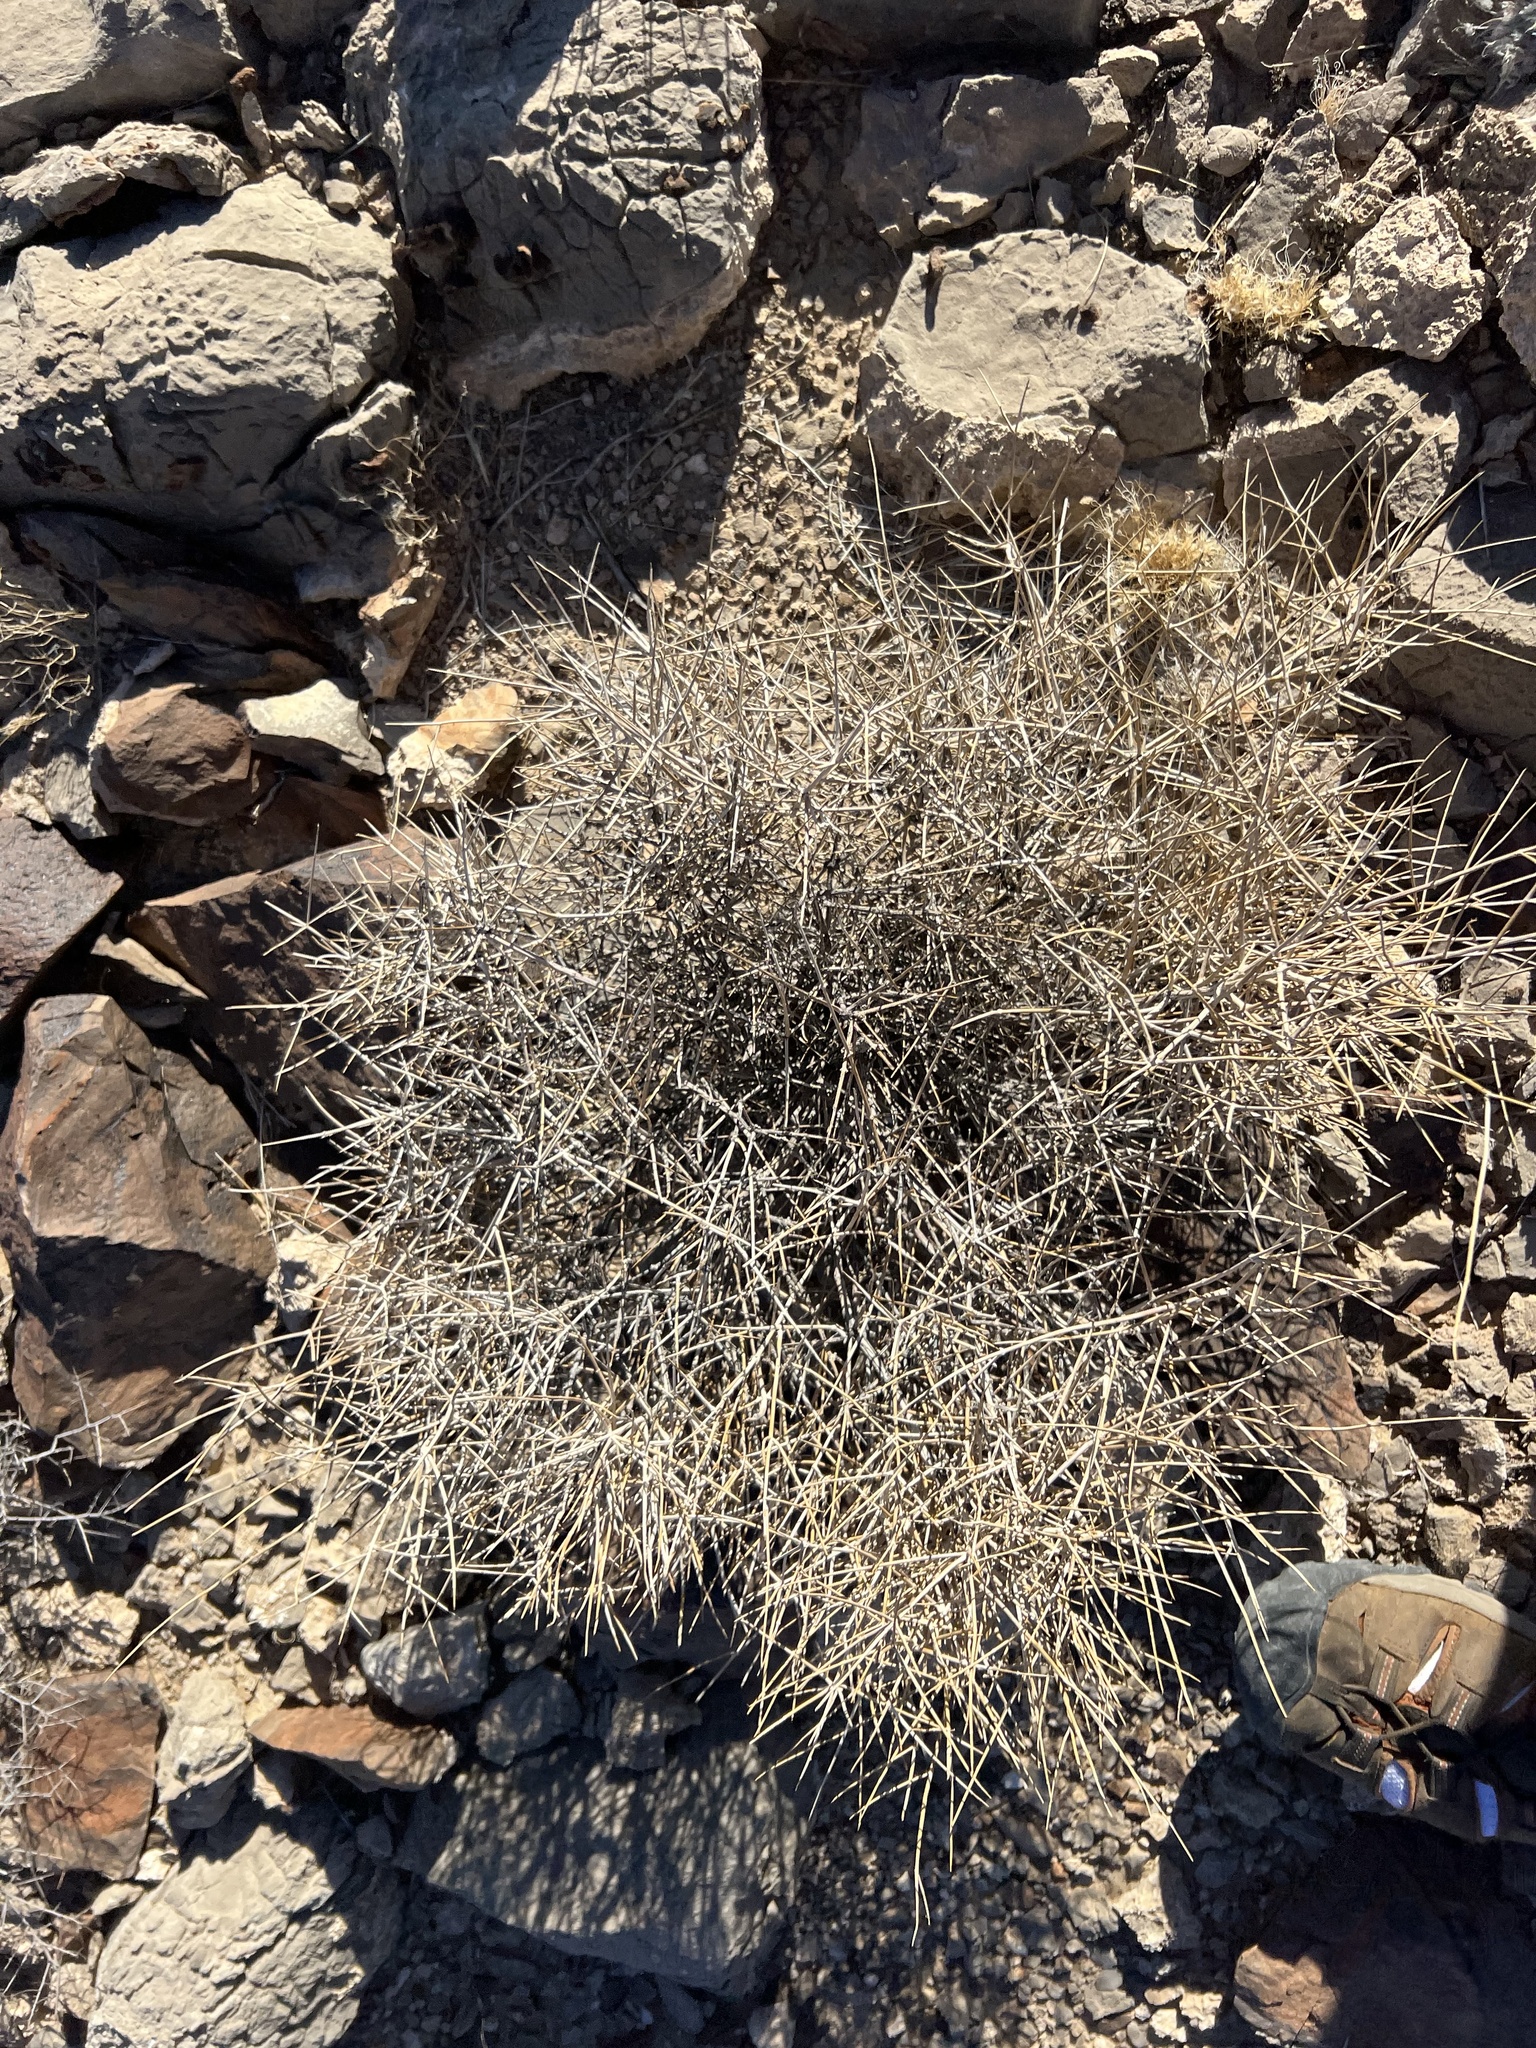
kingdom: Plantae
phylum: Tracheophyta
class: Gnetopsida
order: Ephedrales
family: Ephedraceae
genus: Ephedra
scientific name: Ephedra nevadensis
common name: Gray ephedra
